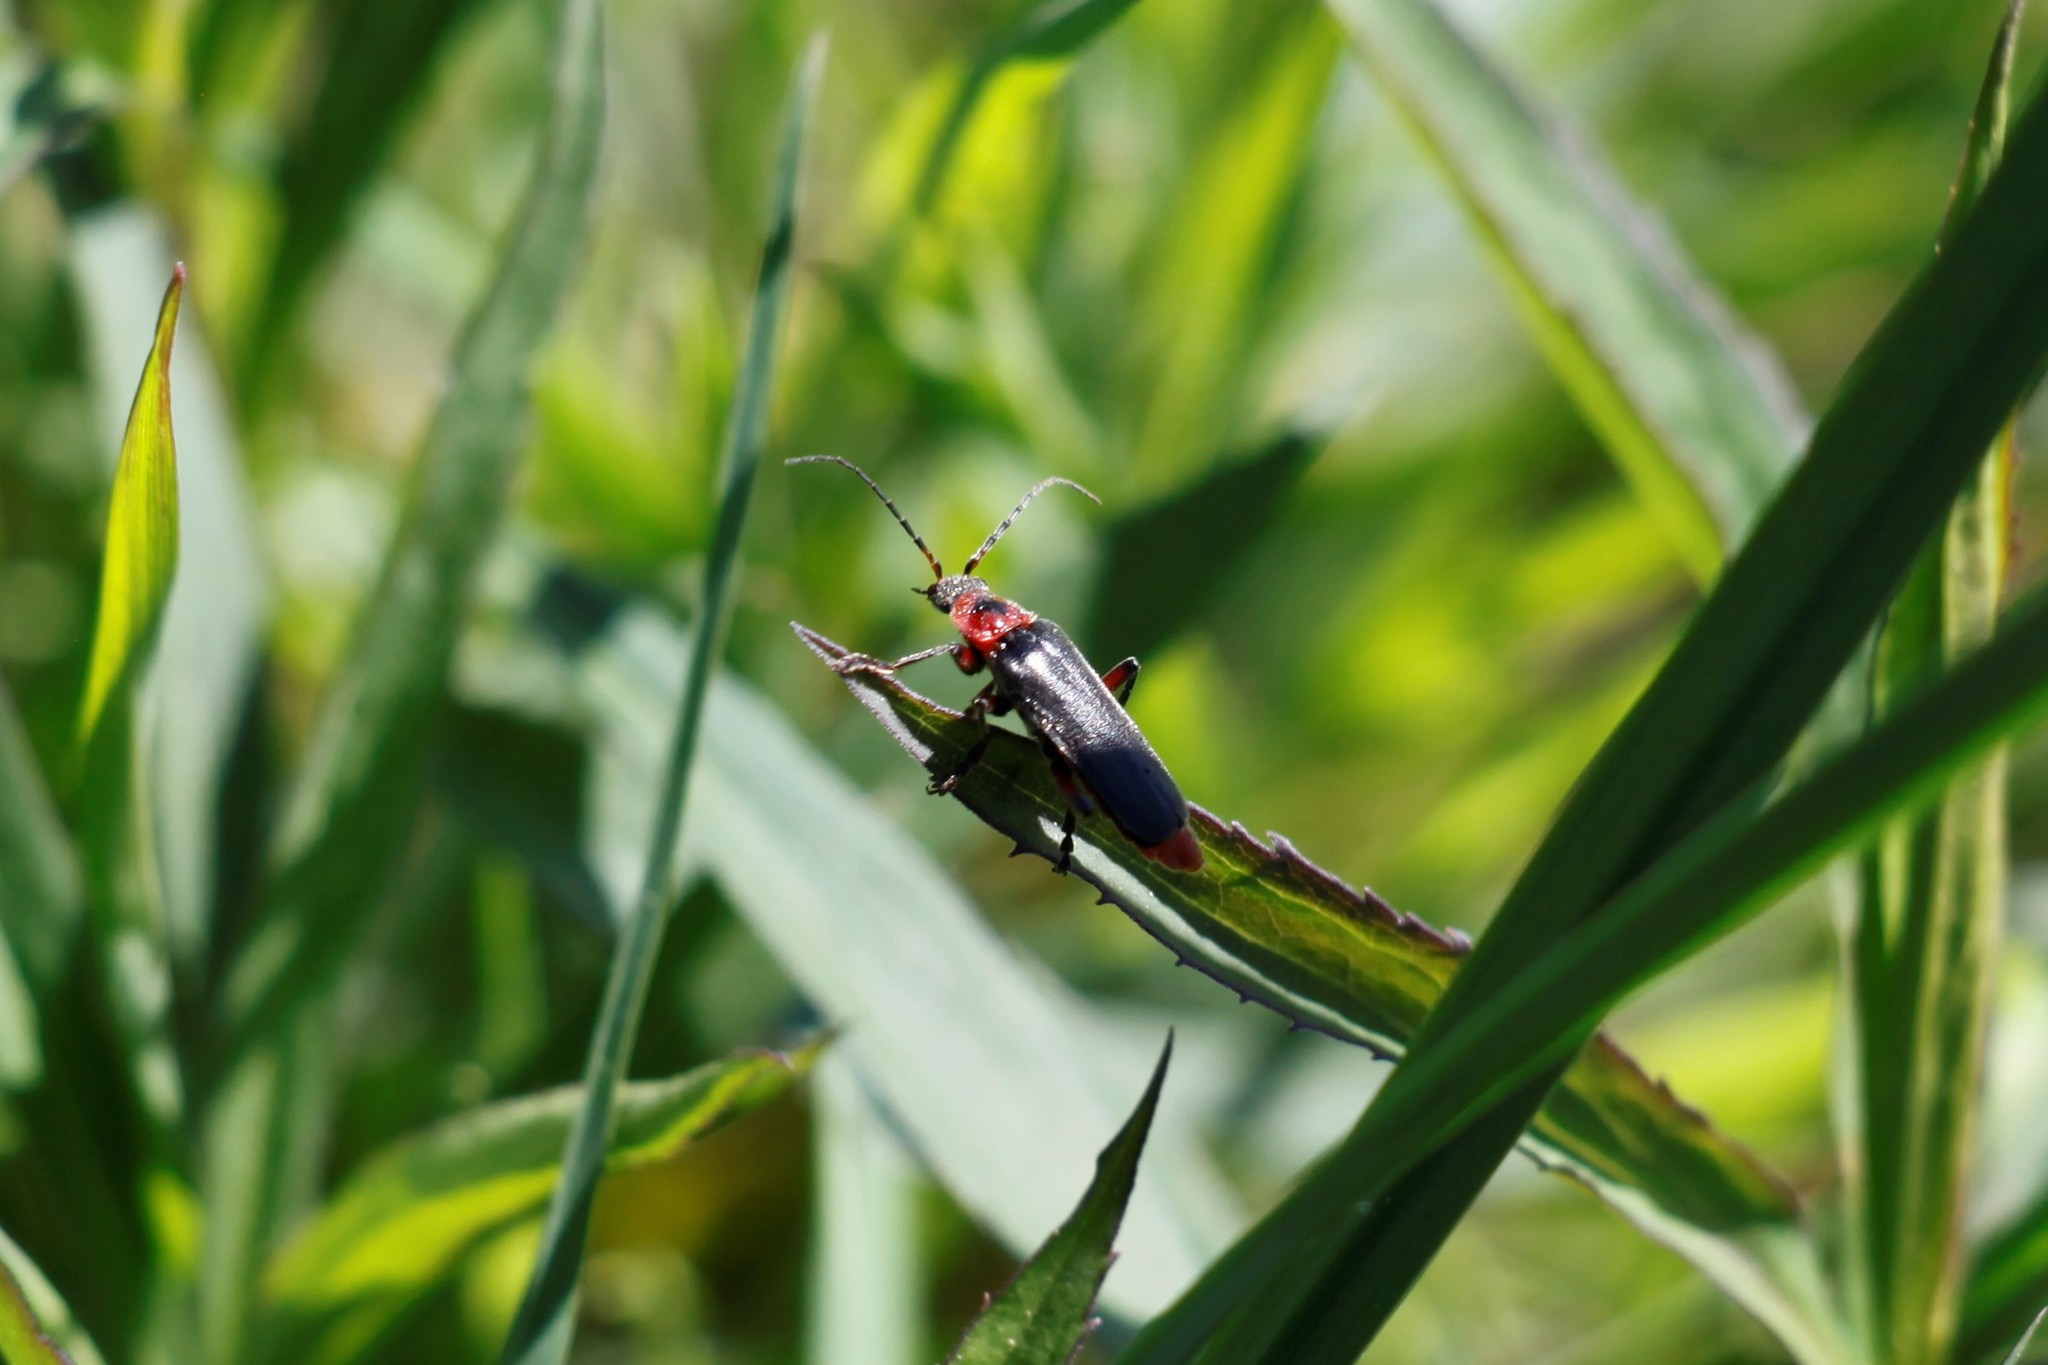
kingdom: Animalia
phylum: Arthropoda
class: Insecta
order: Coleoptera
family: Cantharidae
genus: Cantharis
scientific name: Cantharis rustica
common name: Soldier beetle
